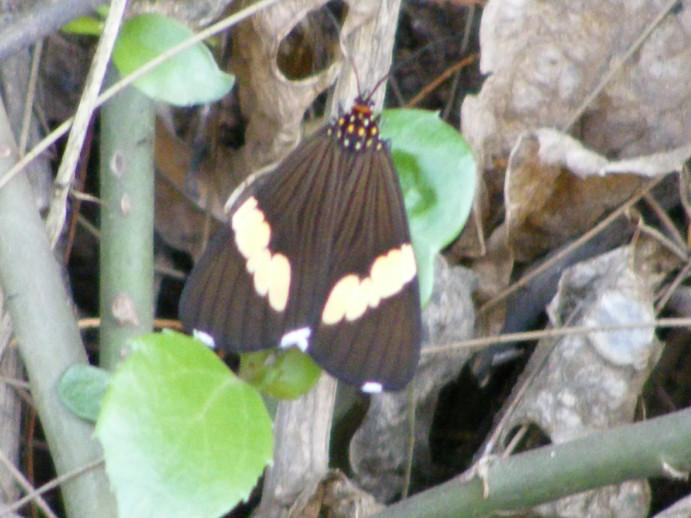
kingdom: Animalia
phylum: Arthropoda
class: Insecta
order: Lepidoptera
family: Erebidae
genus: Nyctemera
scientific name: Nyctemera
